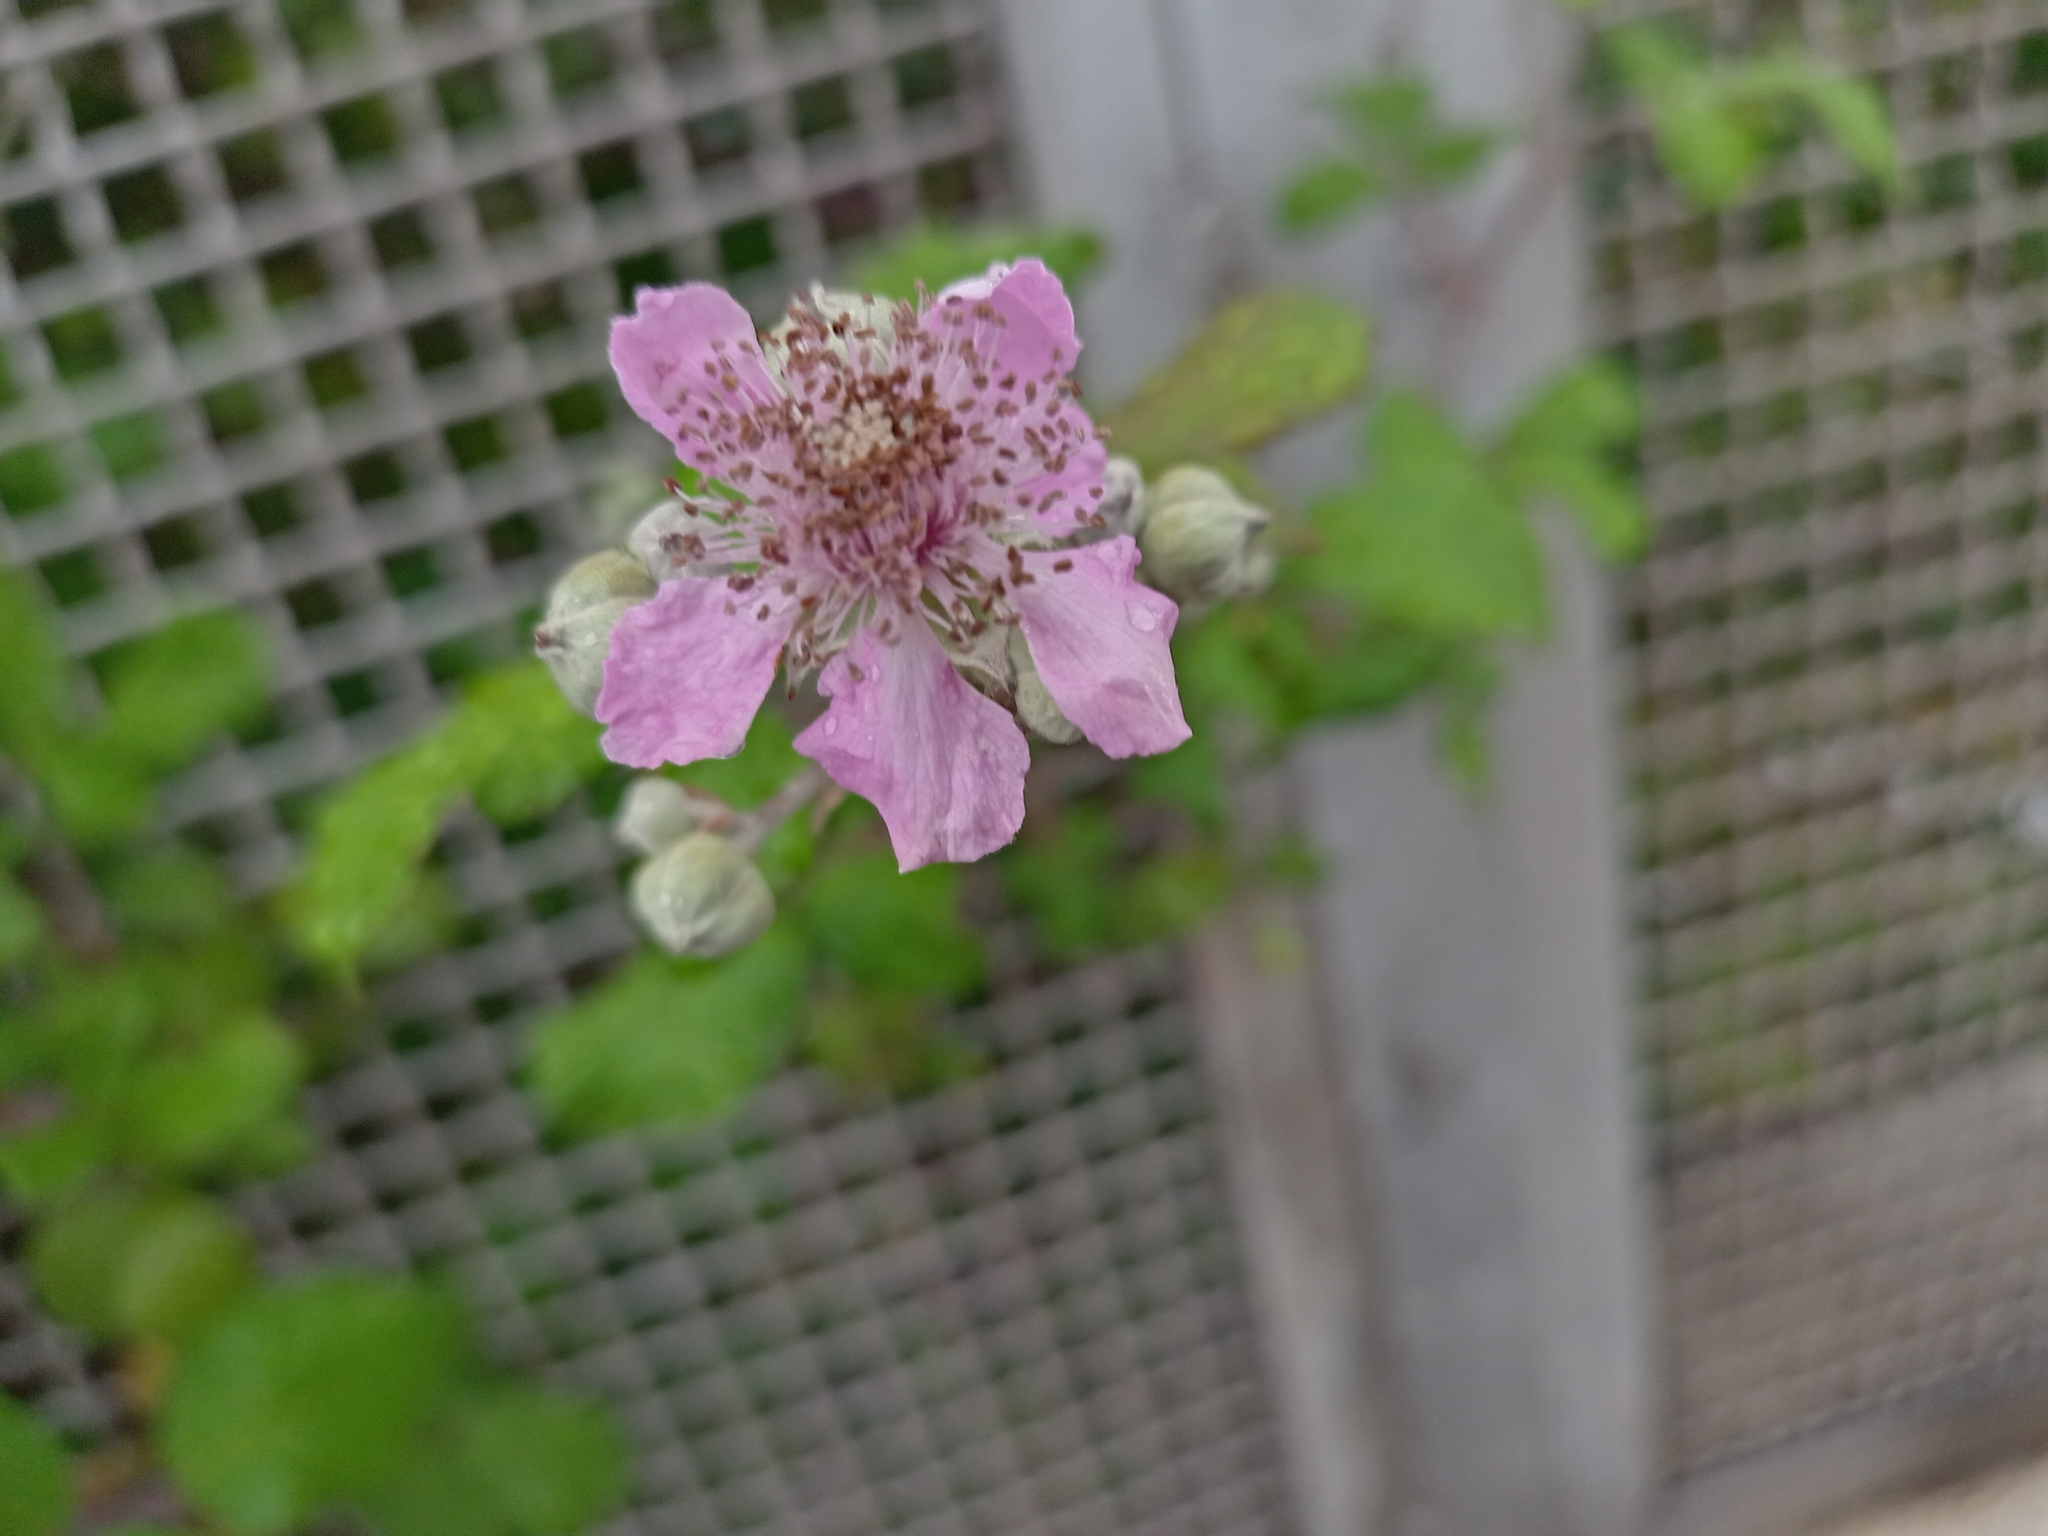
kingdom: Plantae
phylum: Tracheophyta
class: Magnoliopsida
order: Rosales
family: Rosaceae
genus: Rubus
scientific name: Rubus ulmifolius
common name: Elmleaf blackberry
